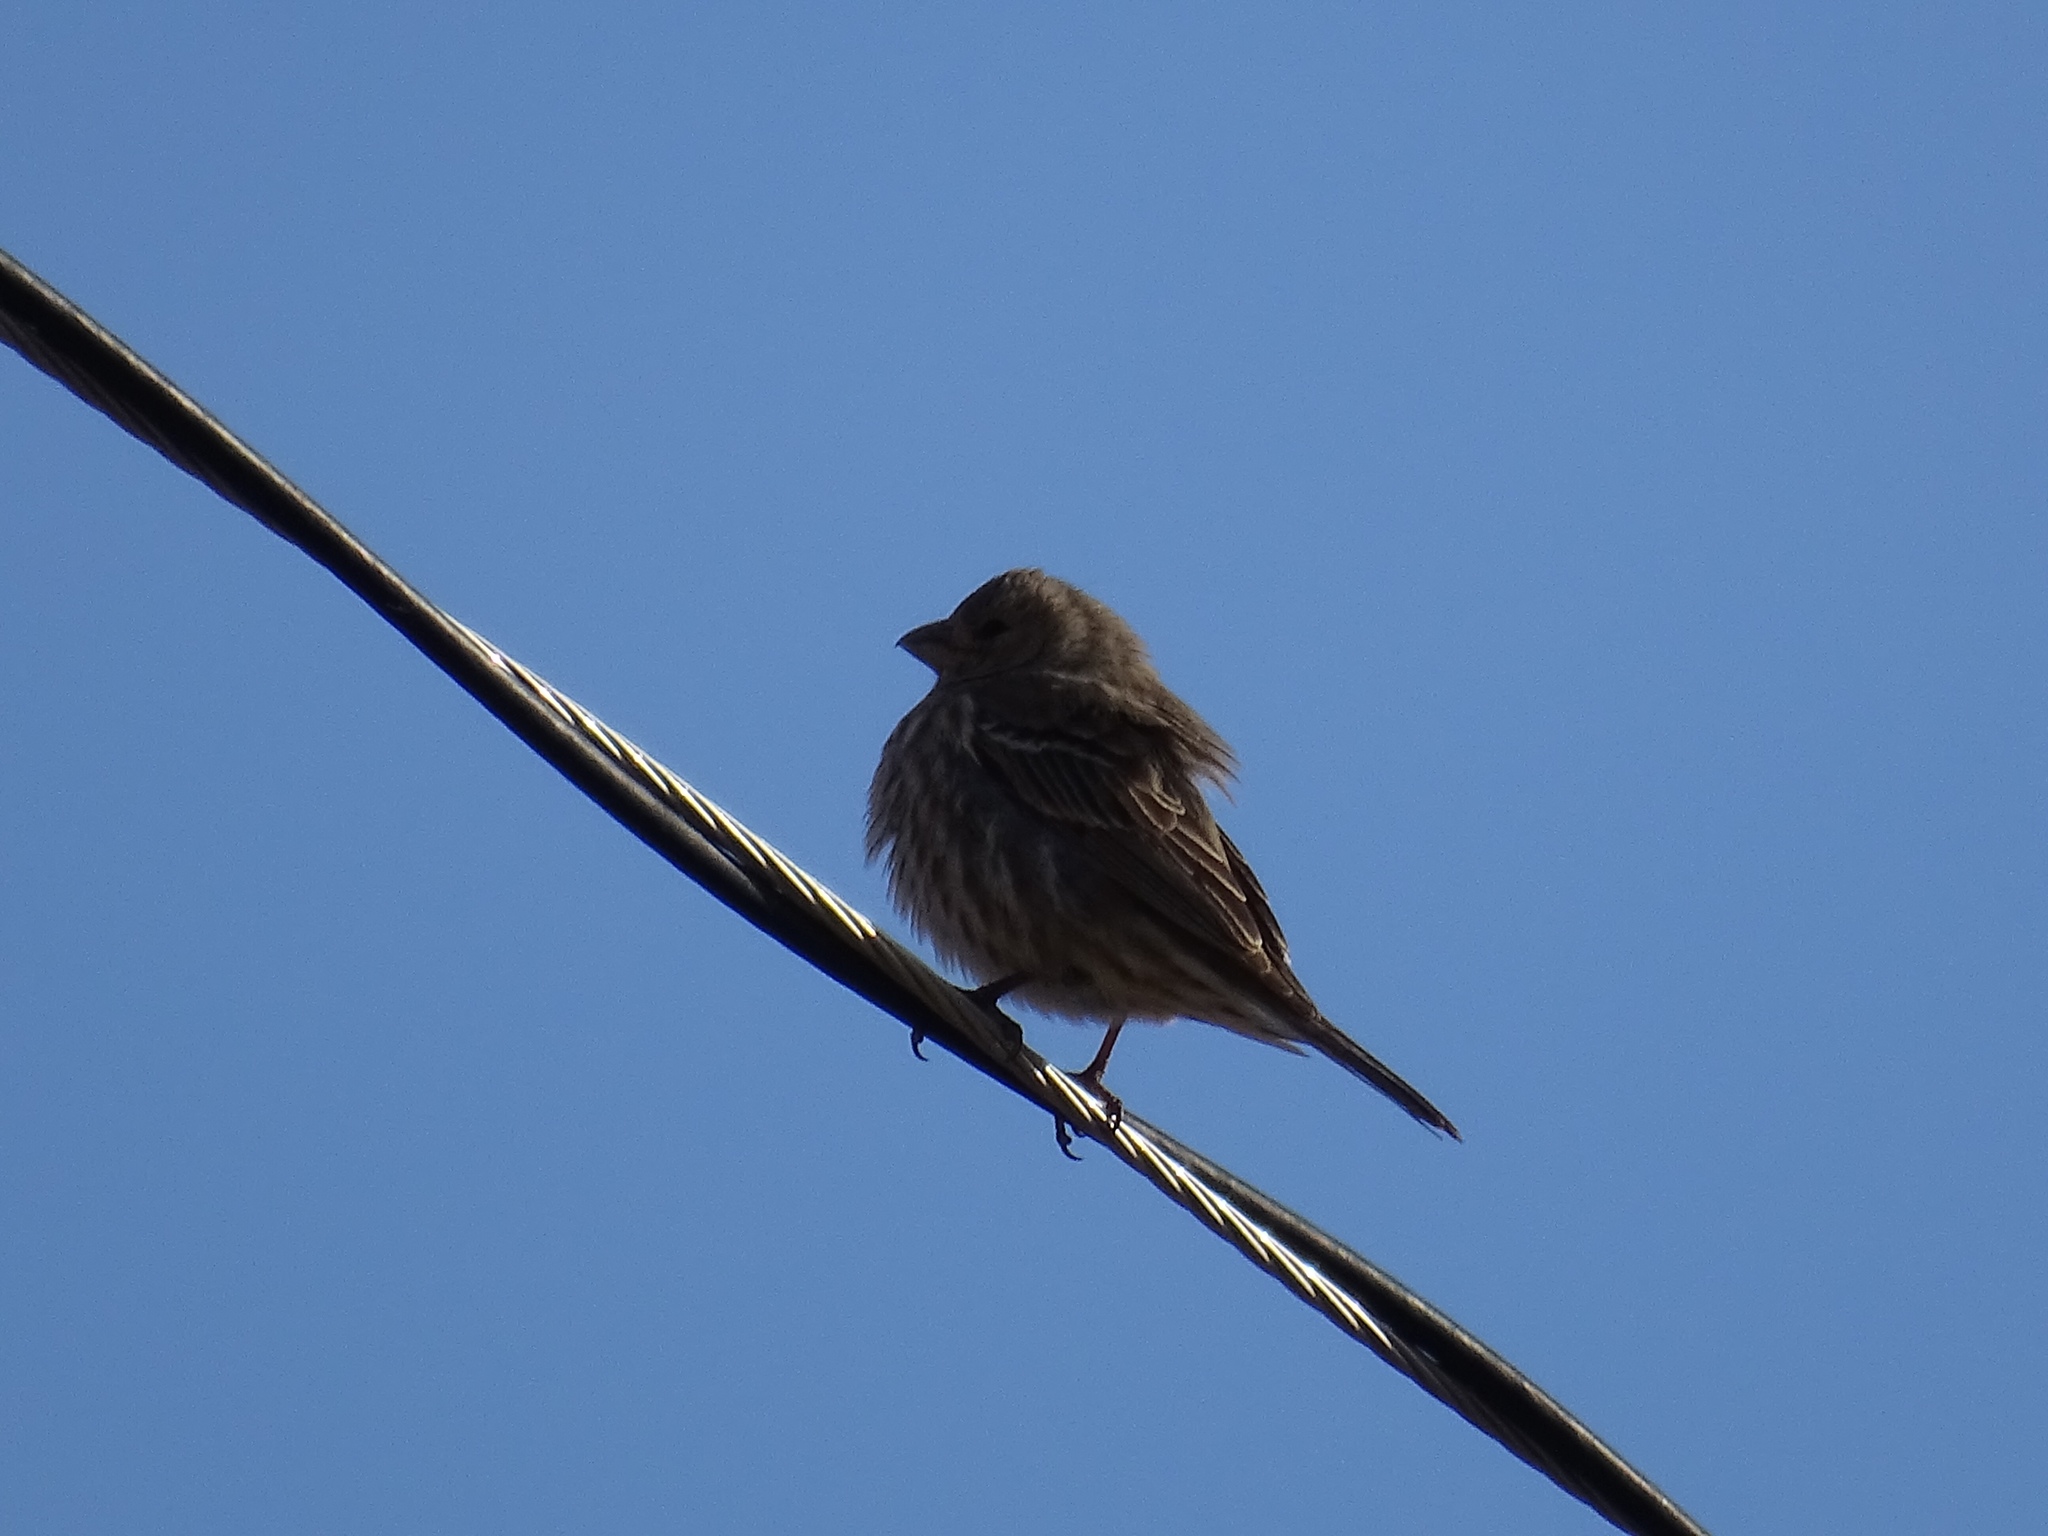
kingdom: Animalia
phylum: Chordata
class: Aves
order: Passeriformes
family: Fringillidae
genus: Haemorhous
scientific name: Haemorhous mexicanus
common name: House finch
